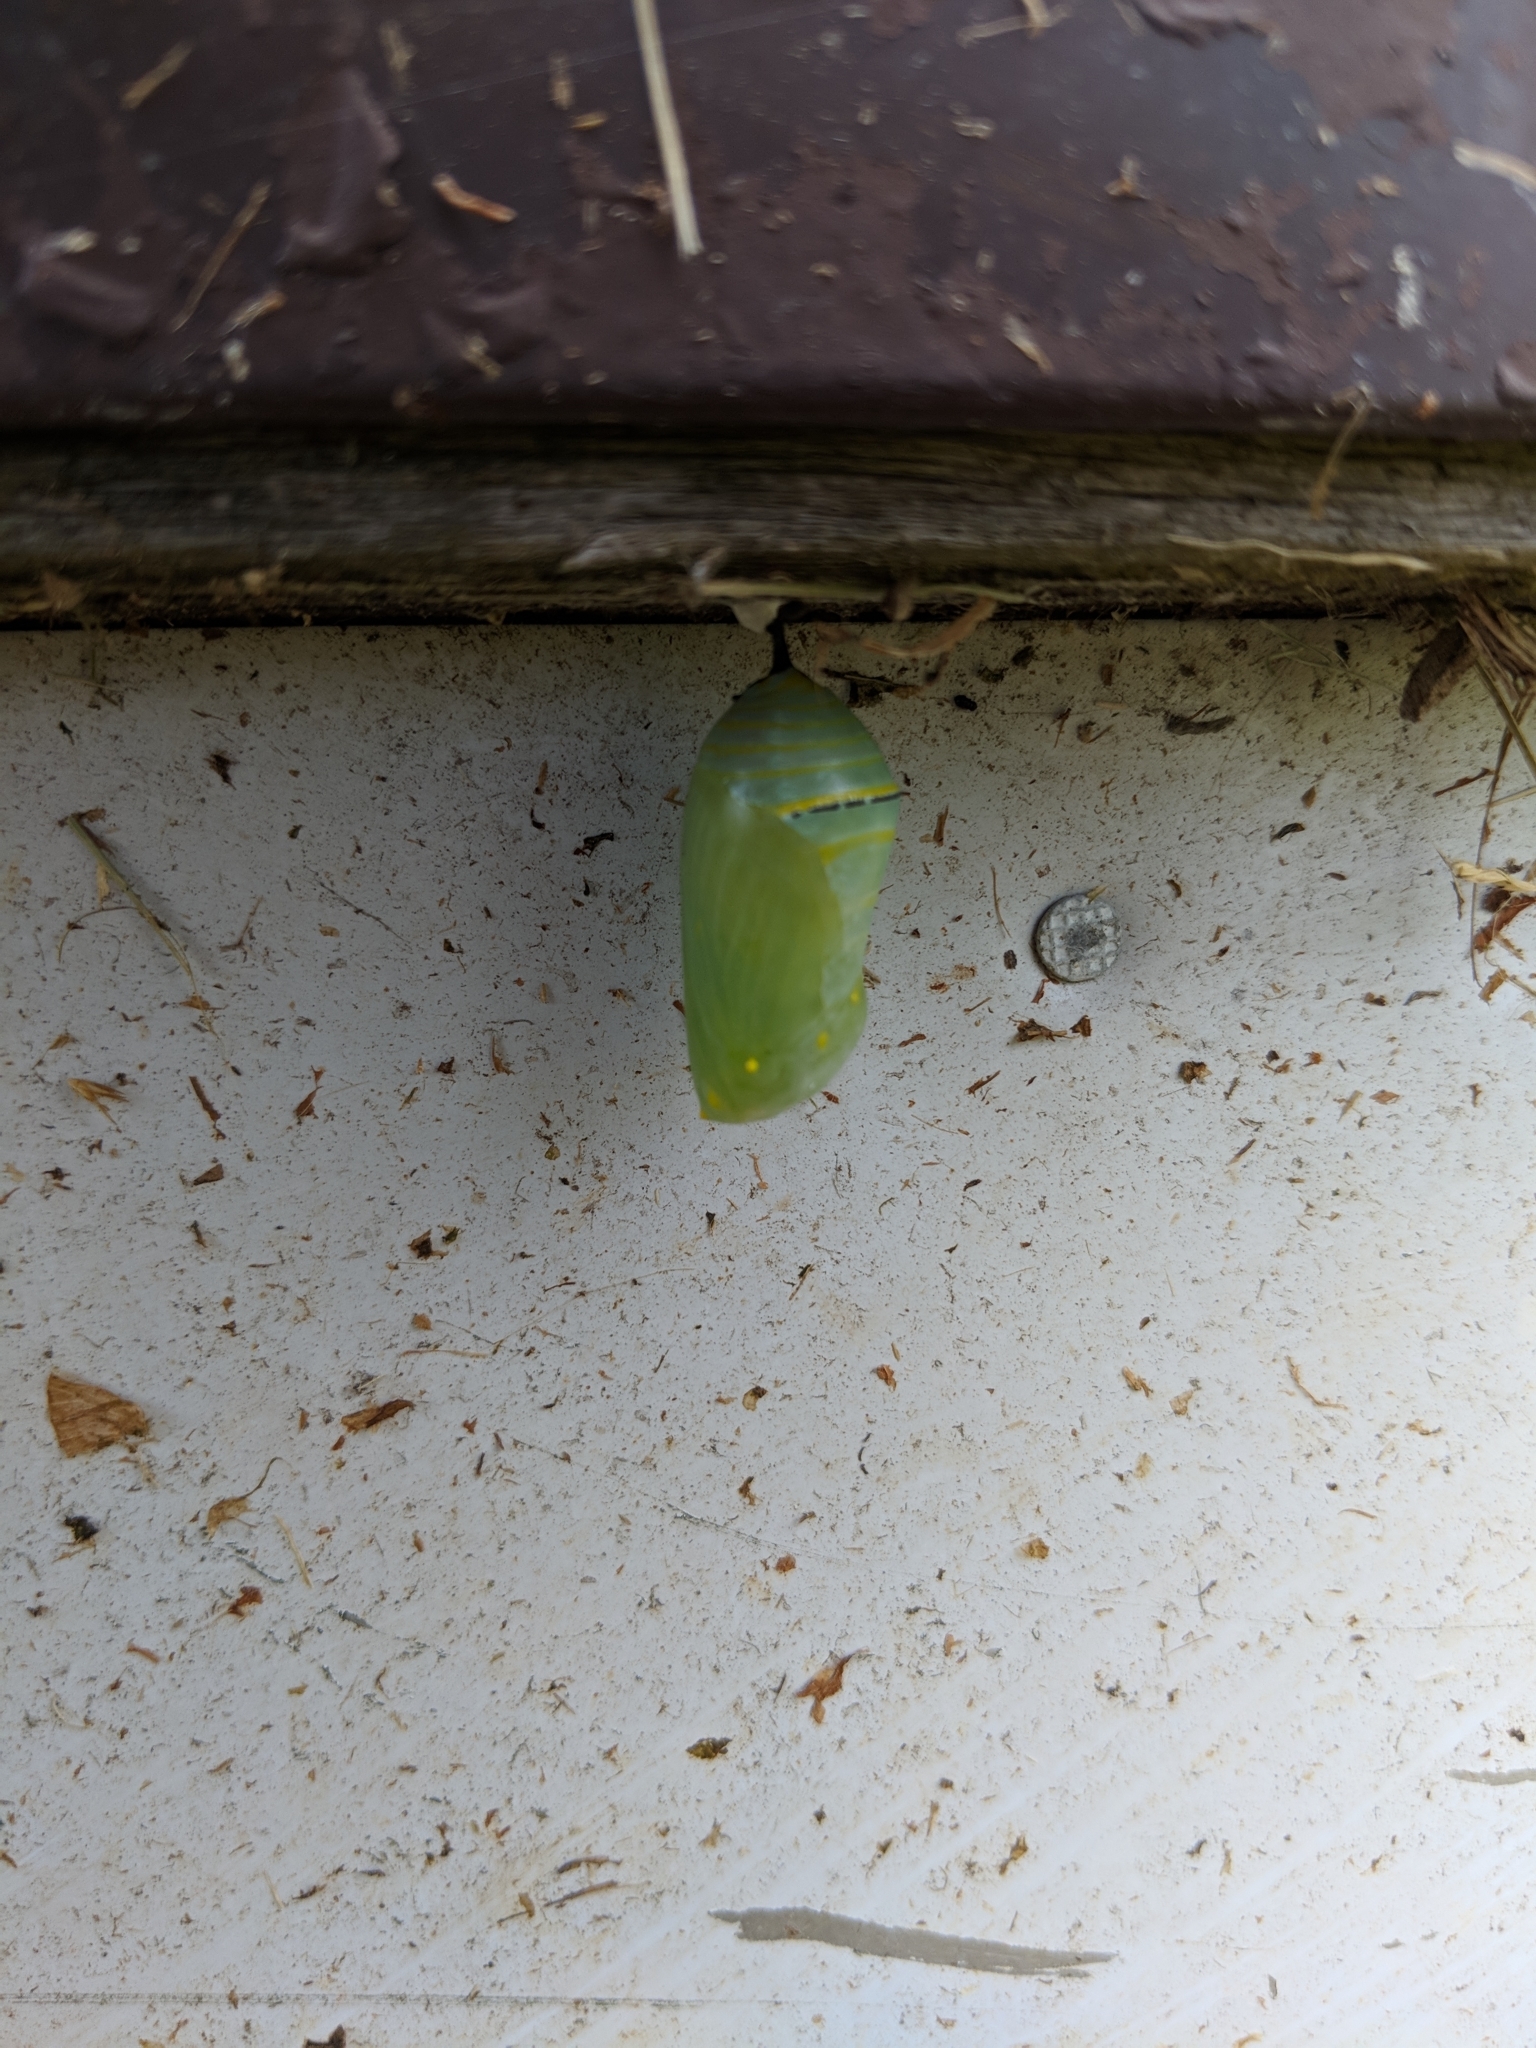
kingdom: Animalia
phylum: Arthropoda
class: Insecta
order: Lepidoptera
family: Nymphalidae
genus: Danaus
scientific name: Danaus plexippus
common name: Monarch
